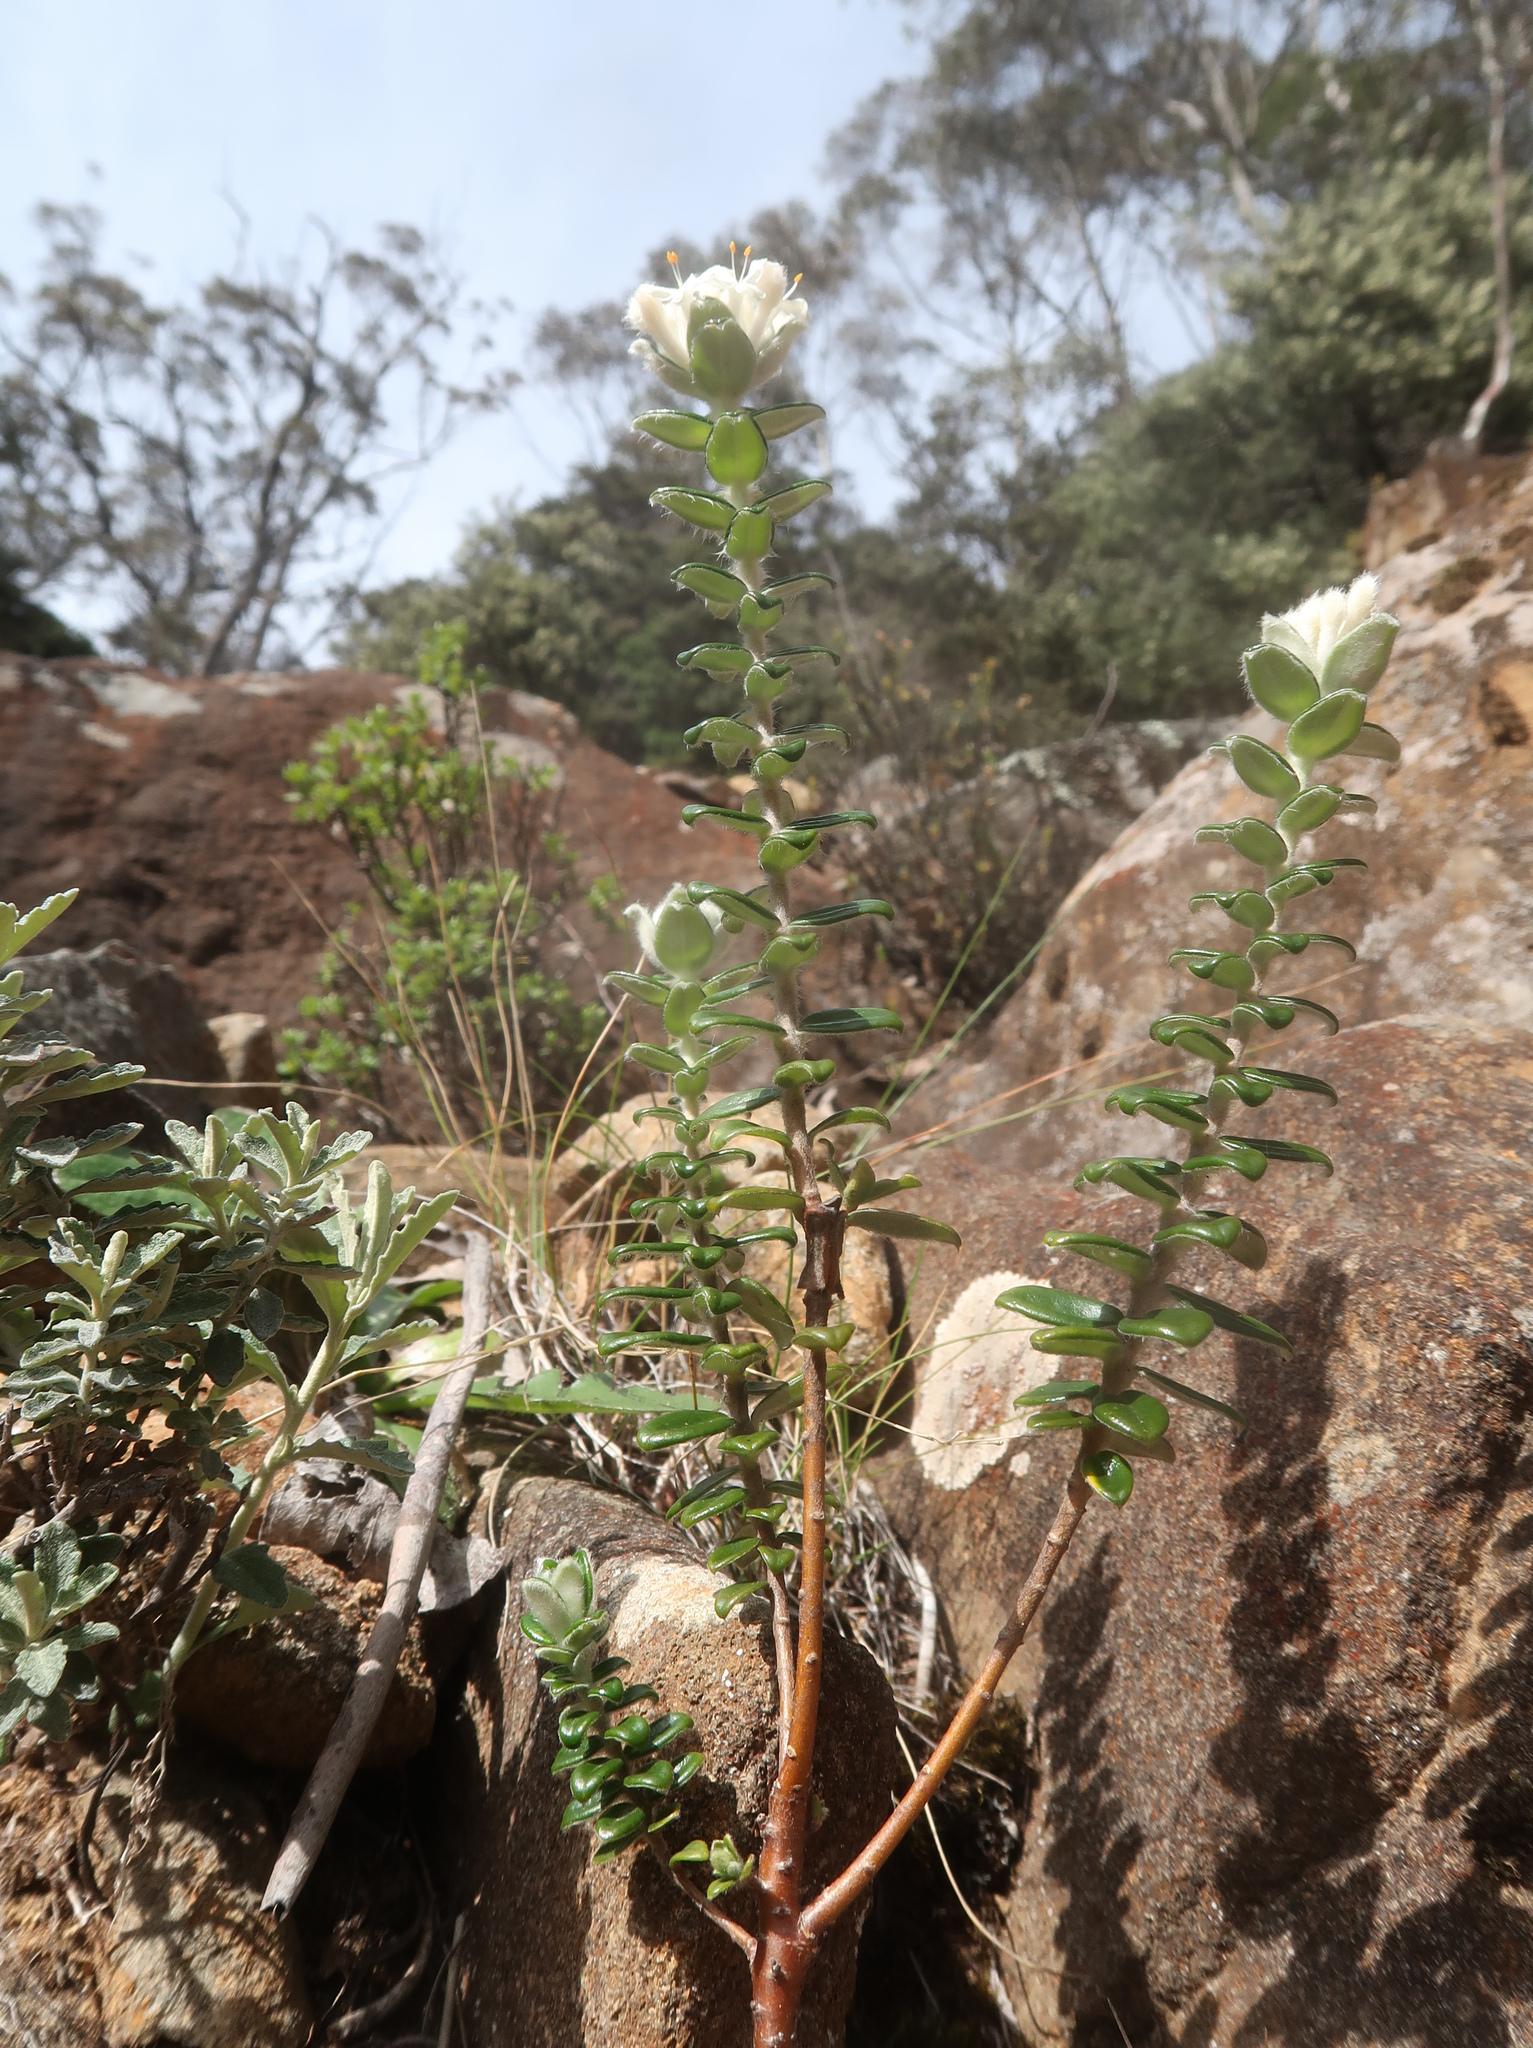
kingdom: Plantae
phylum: Tracheophyta
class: Magnoliopsida
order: Malvales
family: Thymelaeaceae
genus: Pimelea
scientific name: Pimelea nivea
